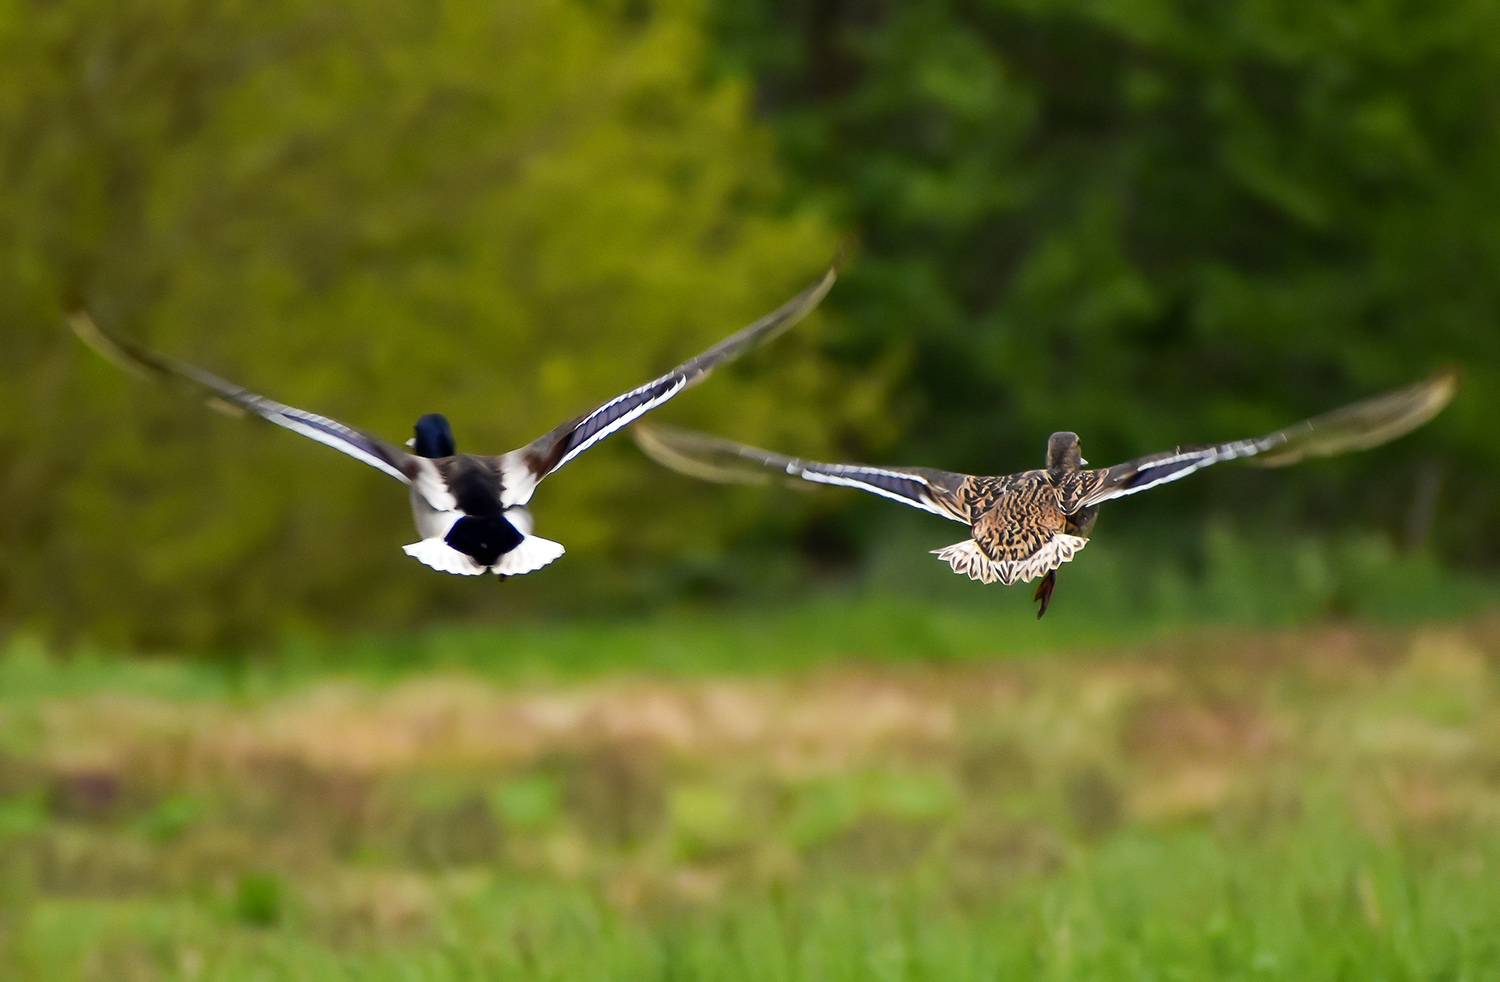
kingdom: Animalia
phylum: Chordata
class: Aves
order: Anseriformes
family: Anatidae
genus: Anas
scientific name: Anas platyrhynchos
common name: Mallard
